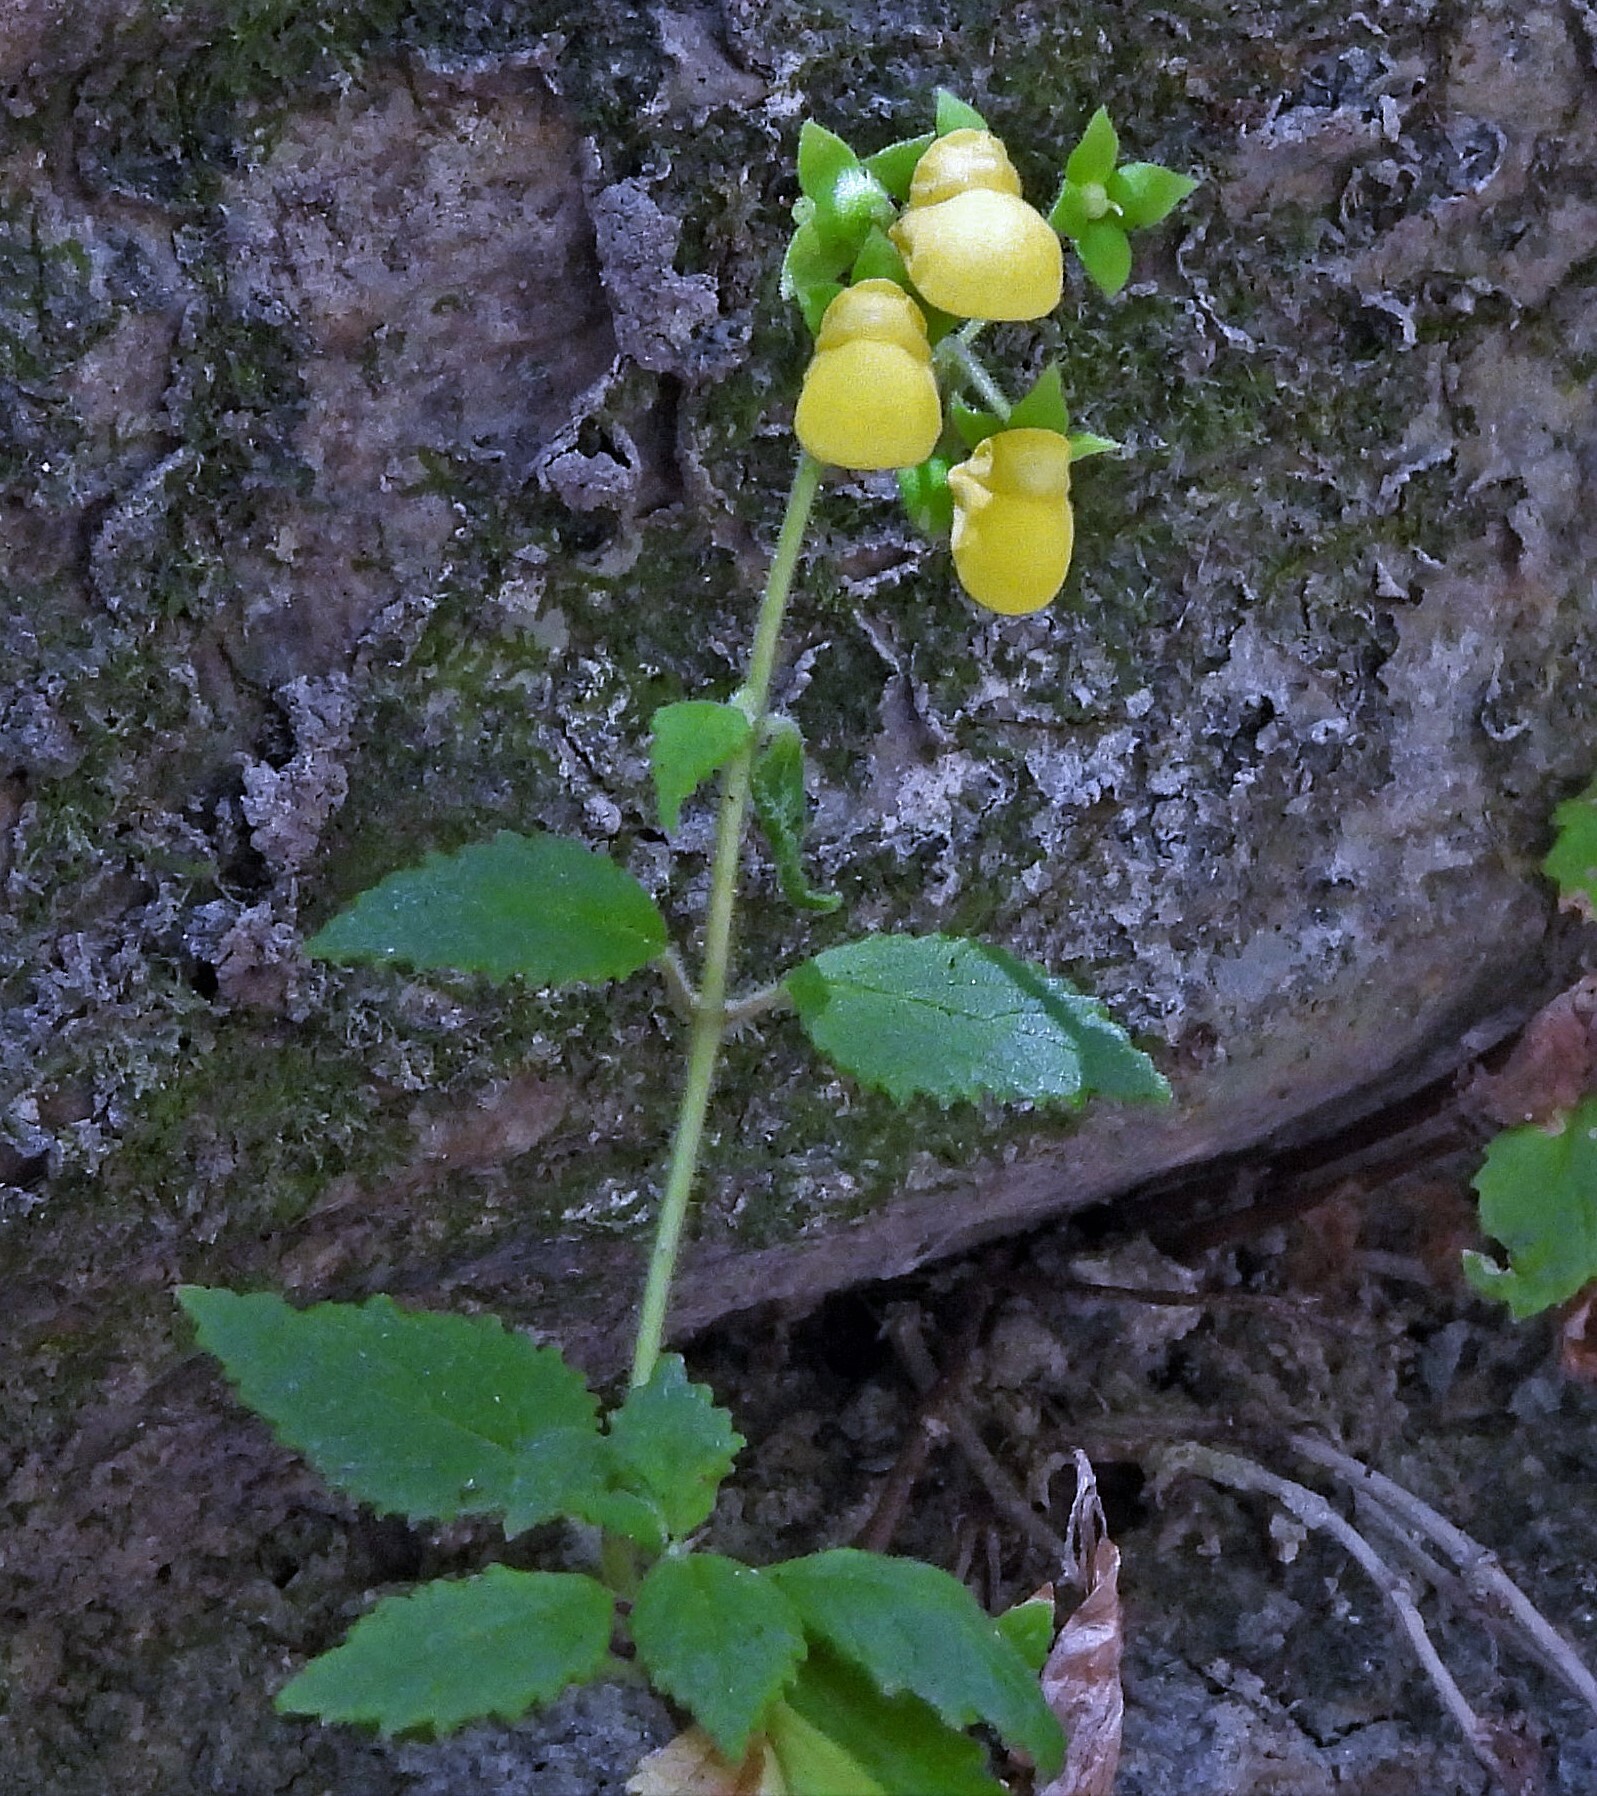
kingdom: Plantae
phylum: Tracheophyta
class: Magnoliopsida
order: Lamiales
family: Calceolariaceae
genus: Calceolaria
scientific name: Calceolaria elatior
